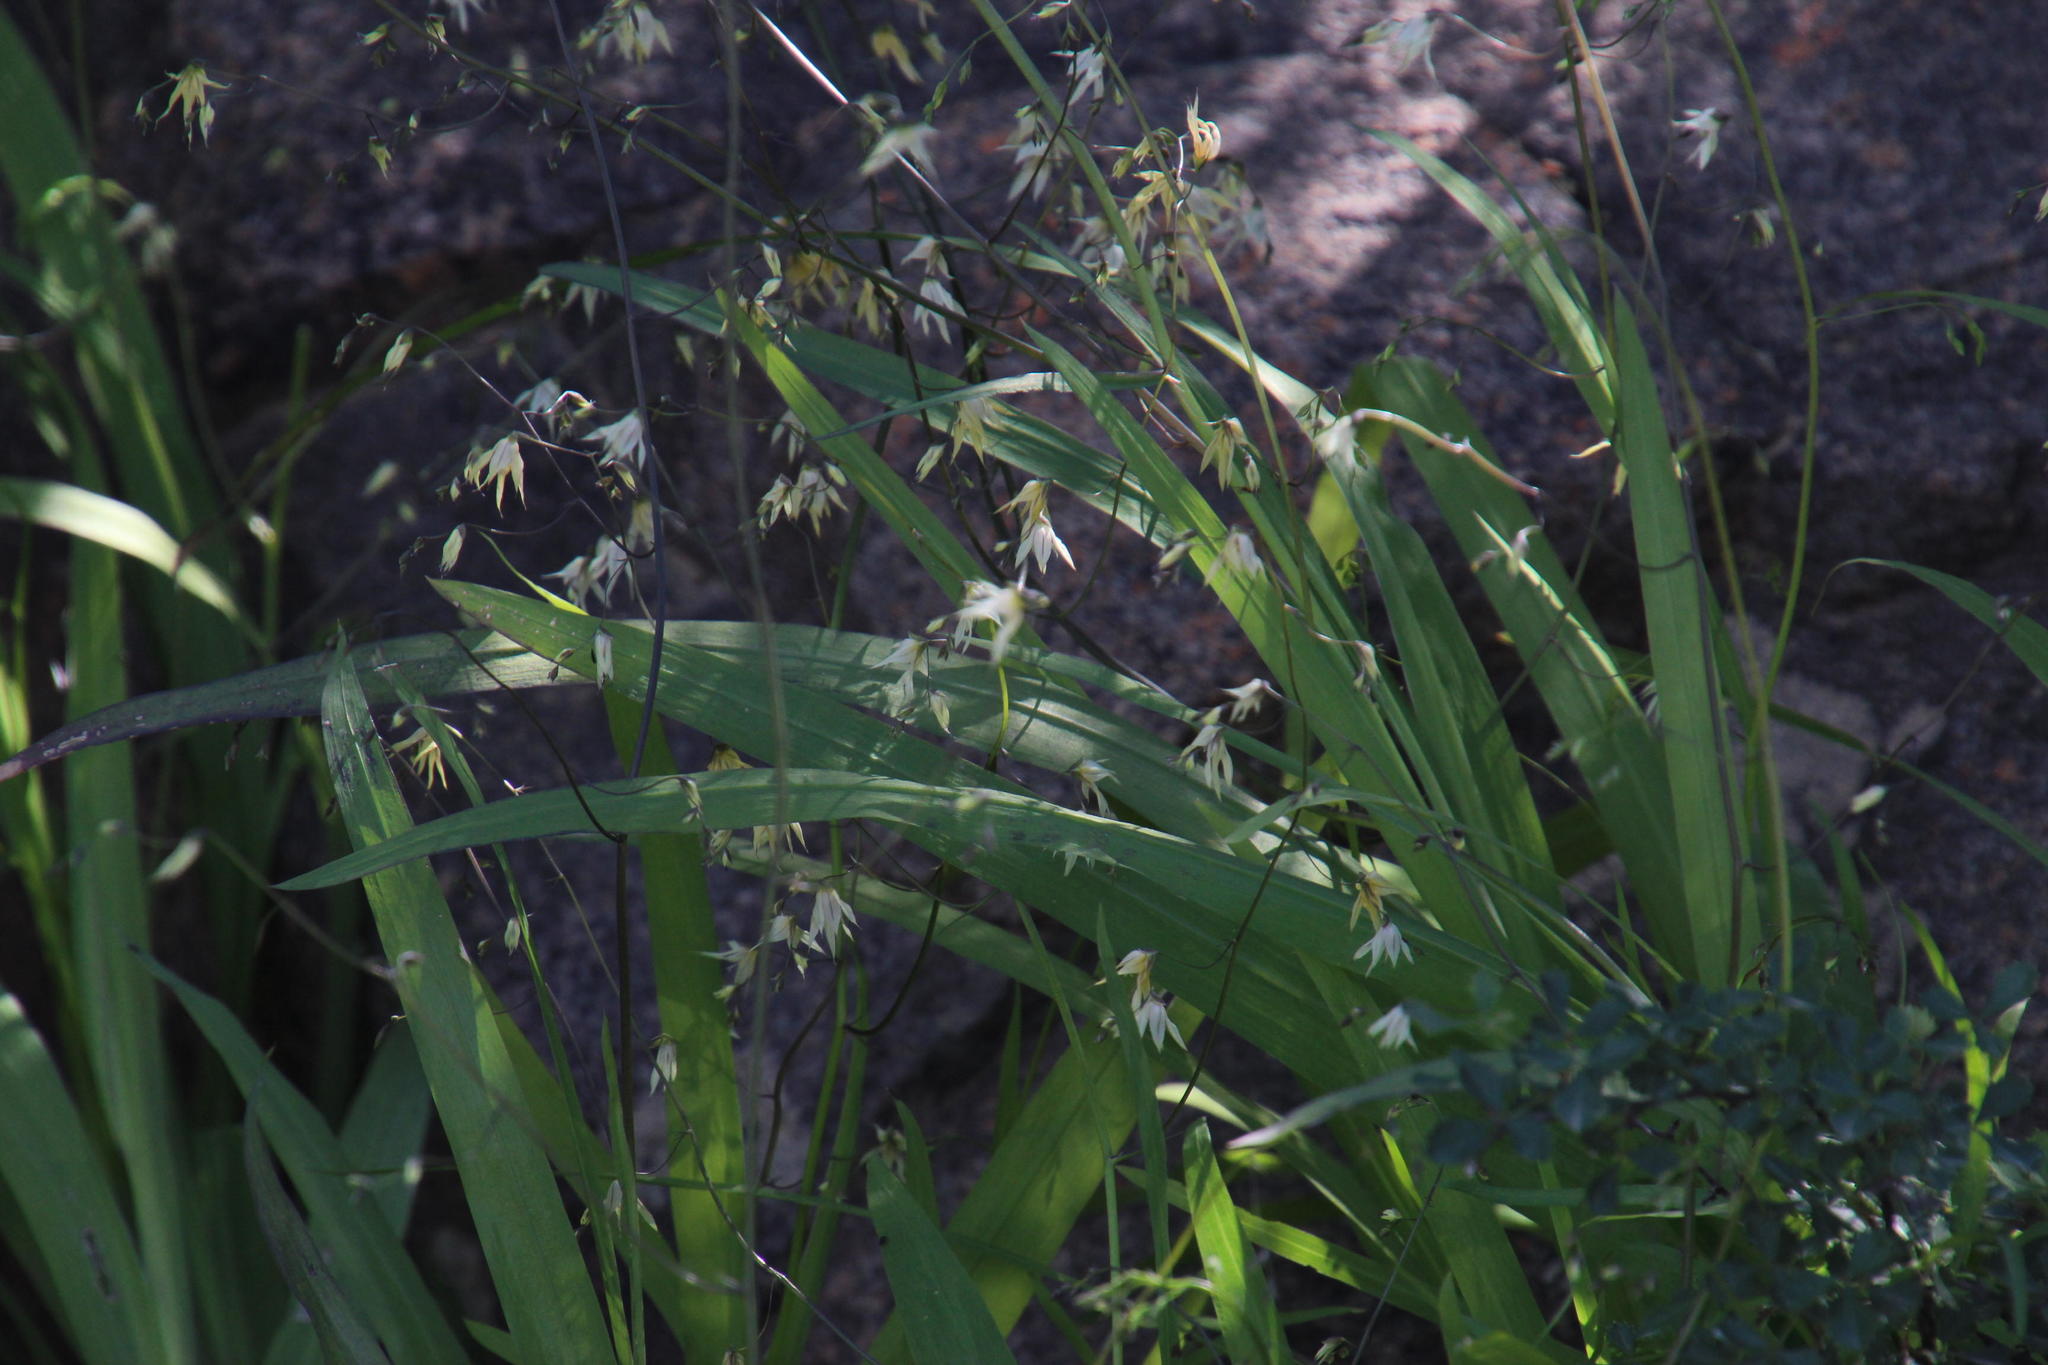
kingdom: Plantae
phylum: Tracheophyta
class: Liliopsida
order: Asparagales
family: Iridaceae
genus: Melasphaerula
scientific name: Melasphaerula graminea
